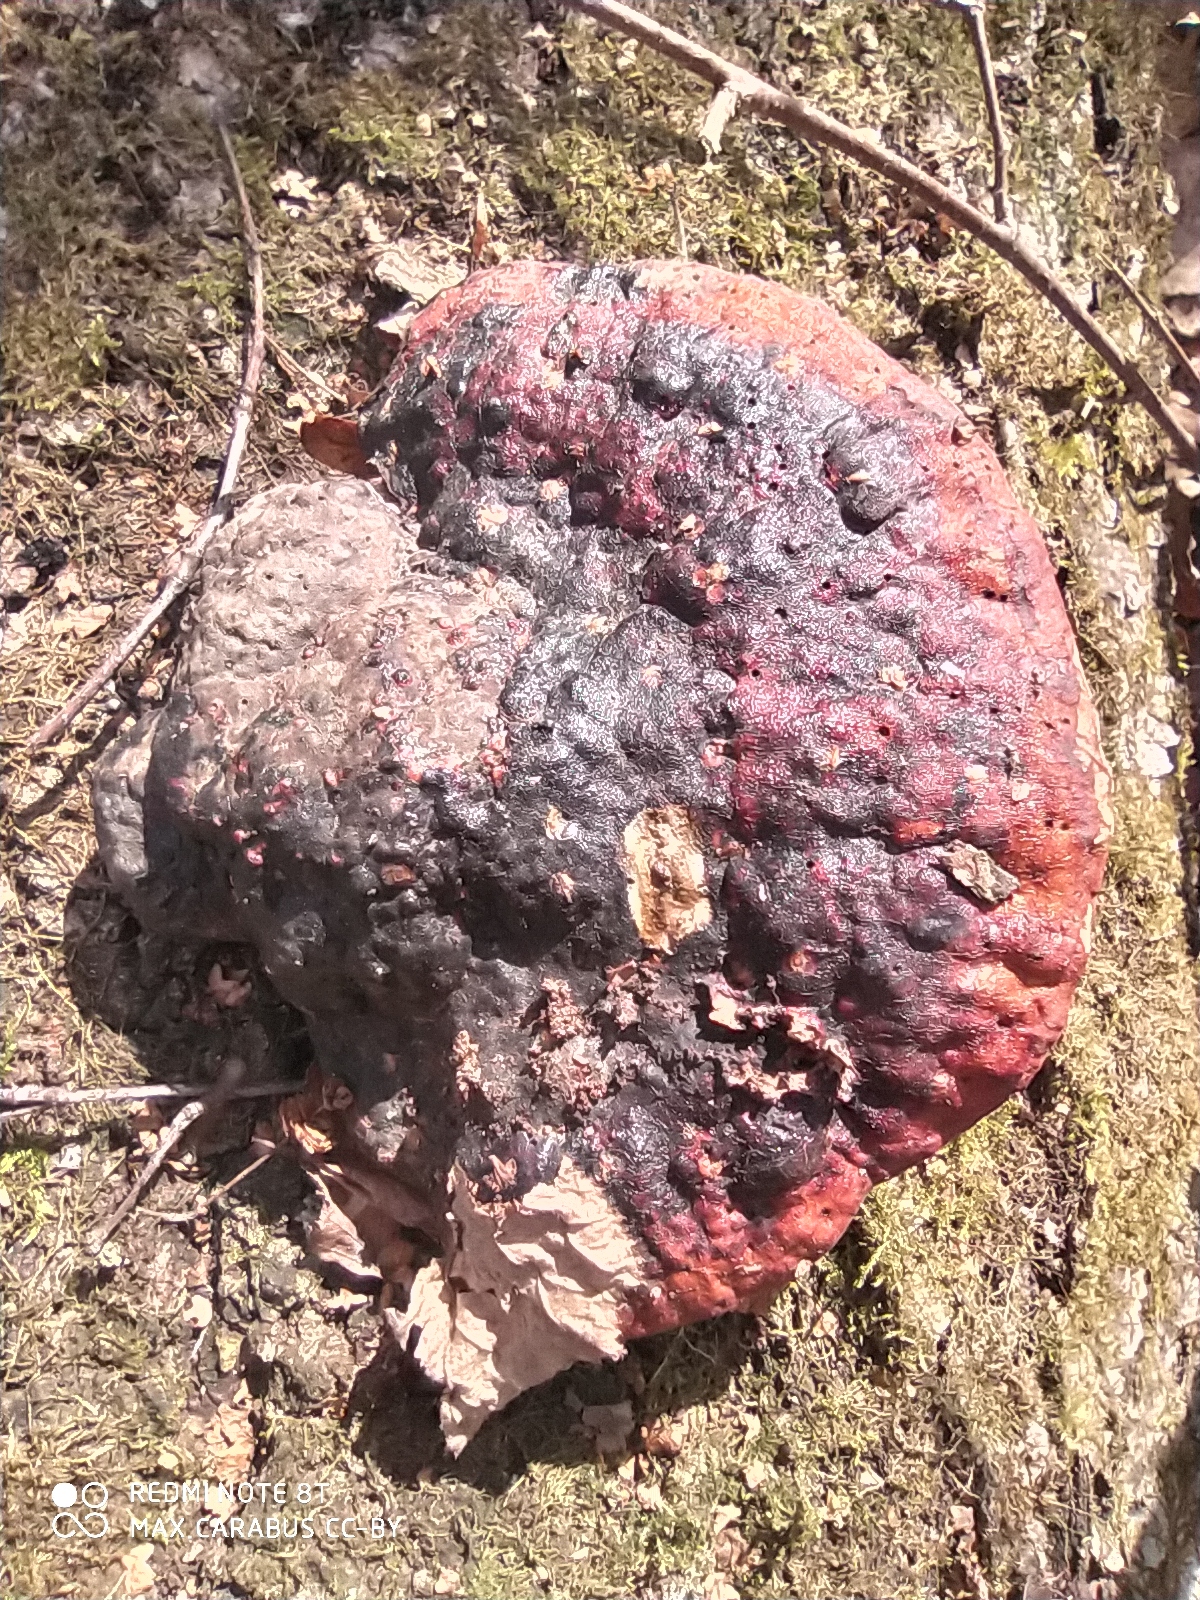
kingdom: Fungi
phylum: Basidiomycota
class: Agaricomycetes
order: Polyporales
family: Fomitopsidaceae
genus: Fomitopsis
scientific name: Fomitopsis pinicola
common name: Red-belted bracket
